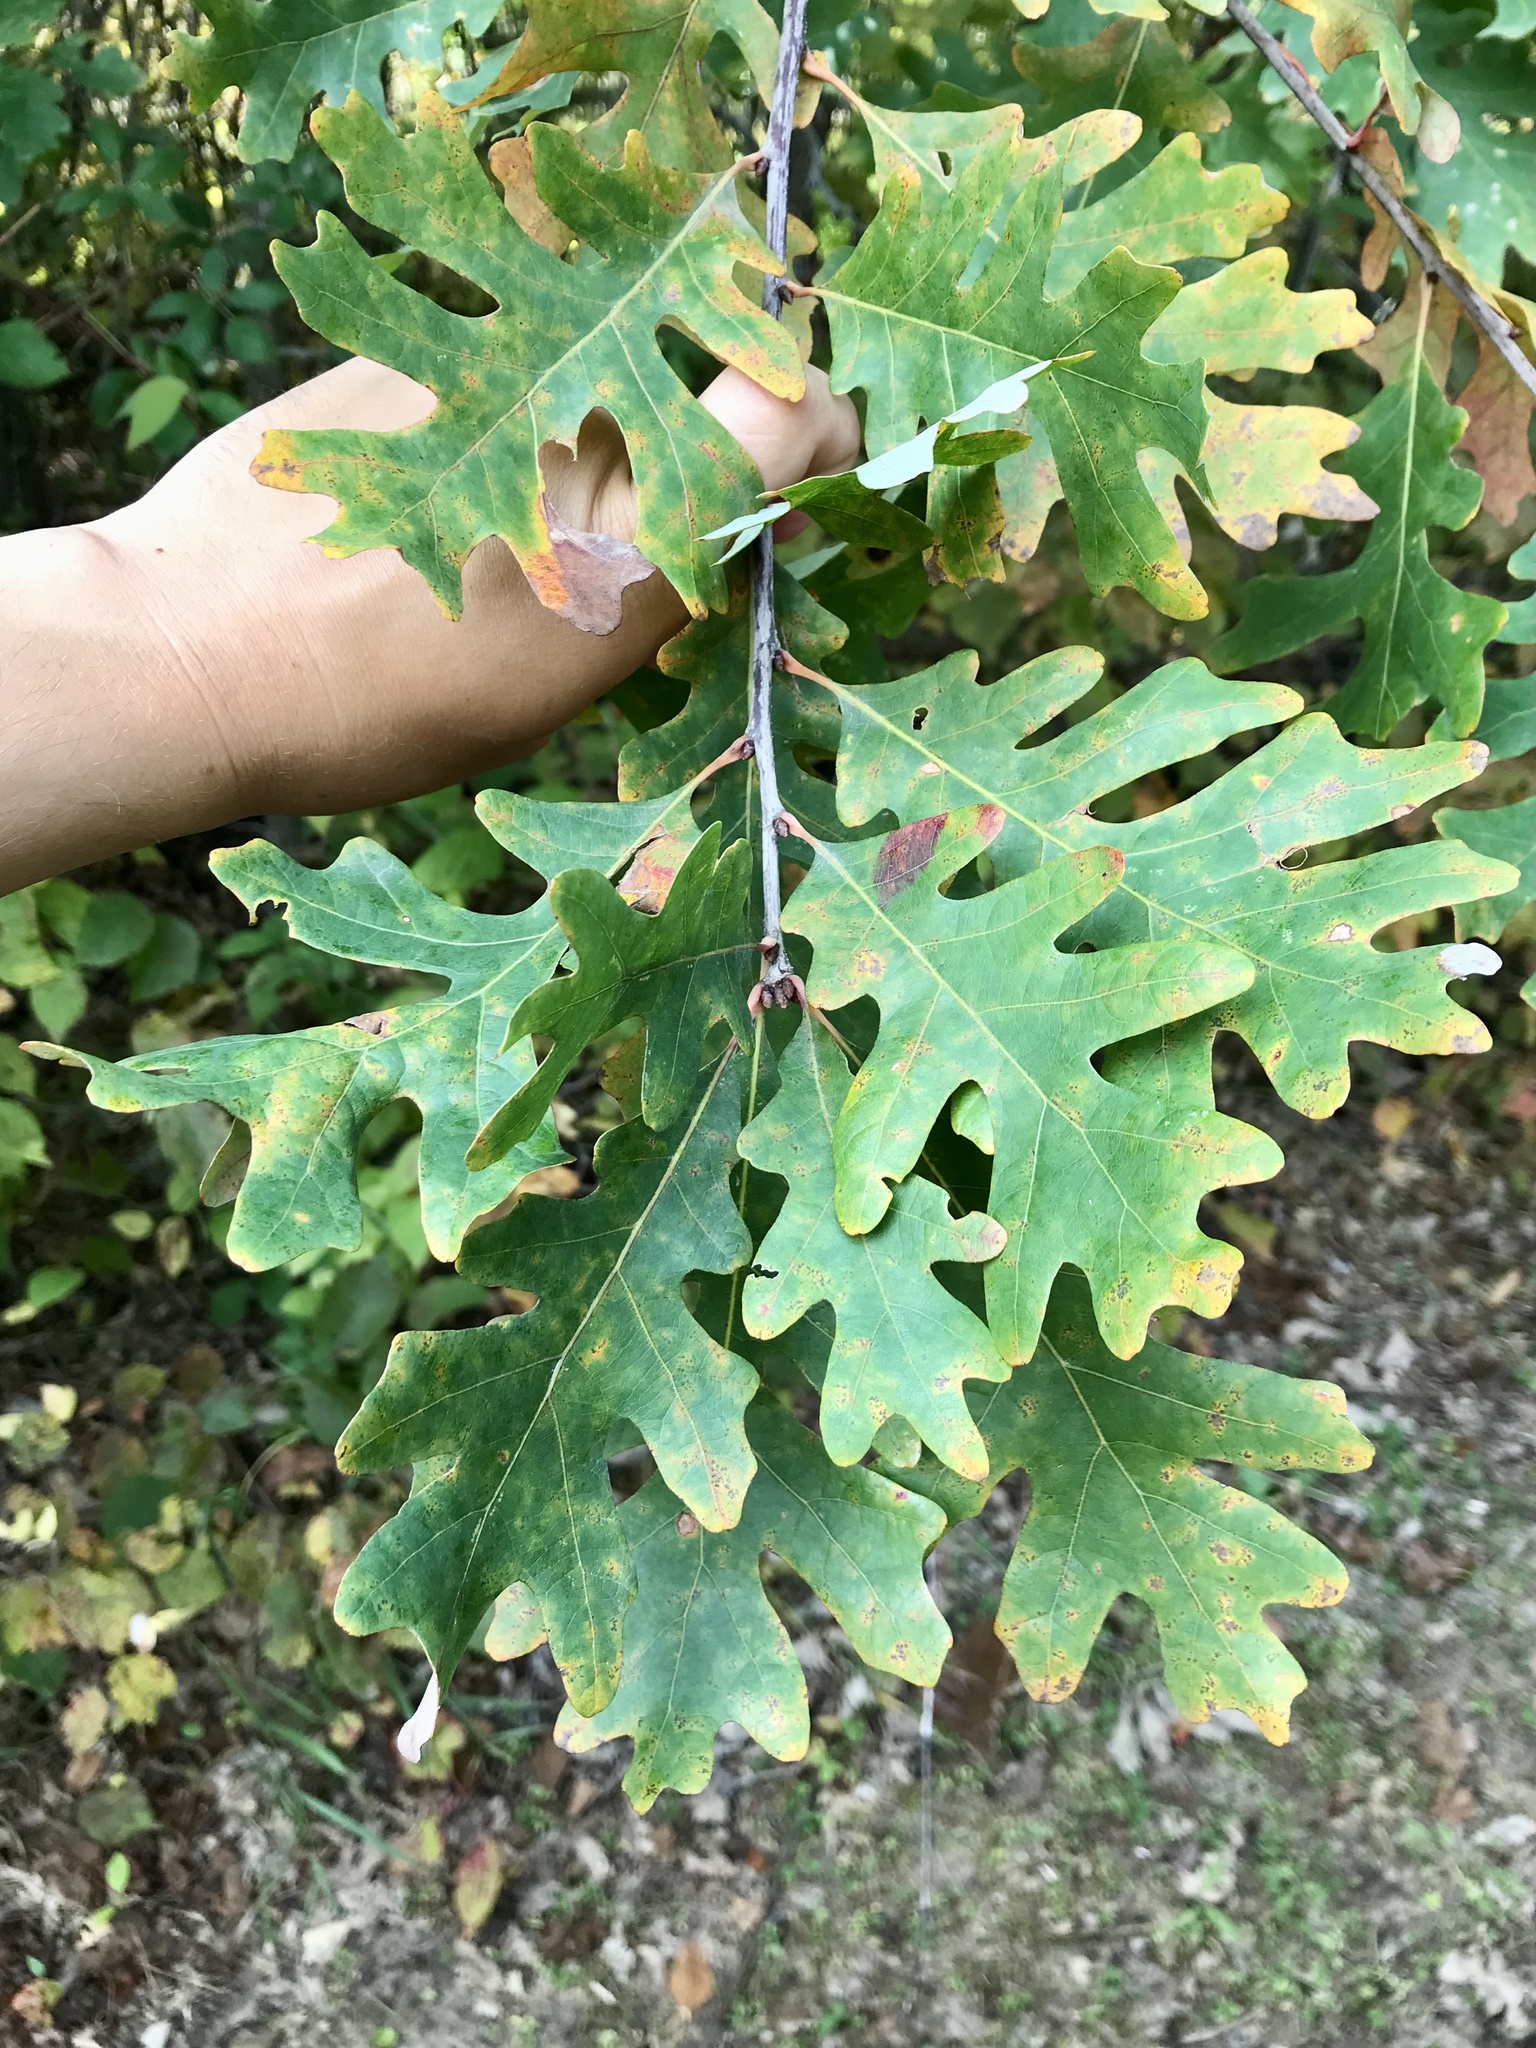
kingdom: Plantae
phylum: Tracheophyta
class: Magnoliopsida
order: Fagales
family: Fagaceae
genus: Quercus
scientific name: Quercus alba
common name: White oak
